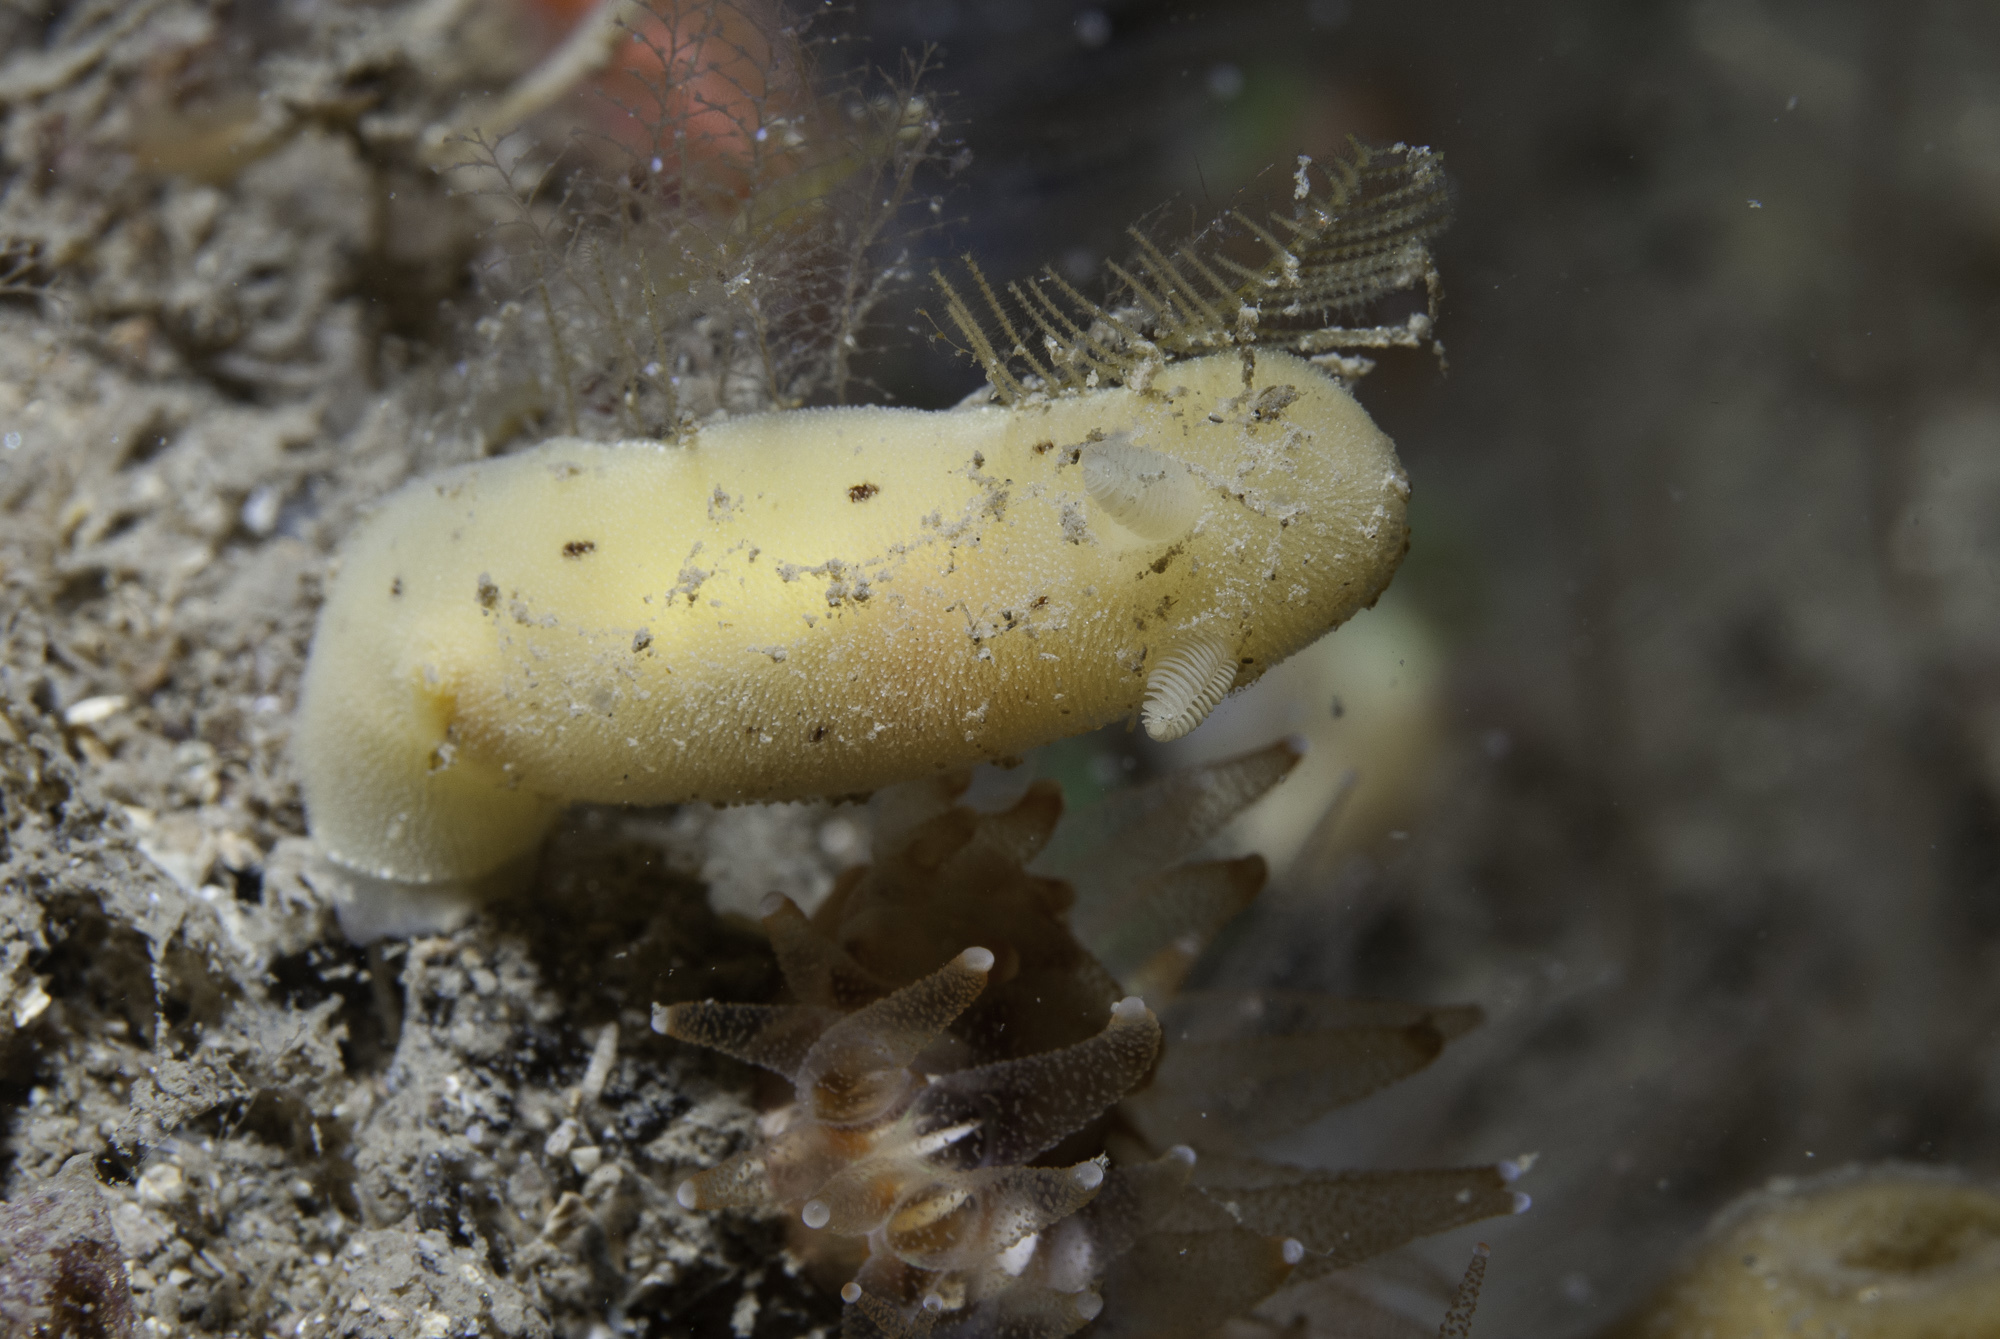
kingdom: Animalia
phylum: Mollusca
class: Gastropoda
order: Nudibranchia
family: Discodorididae
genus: Jorunna
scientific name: Jorunna artsdatabankia
